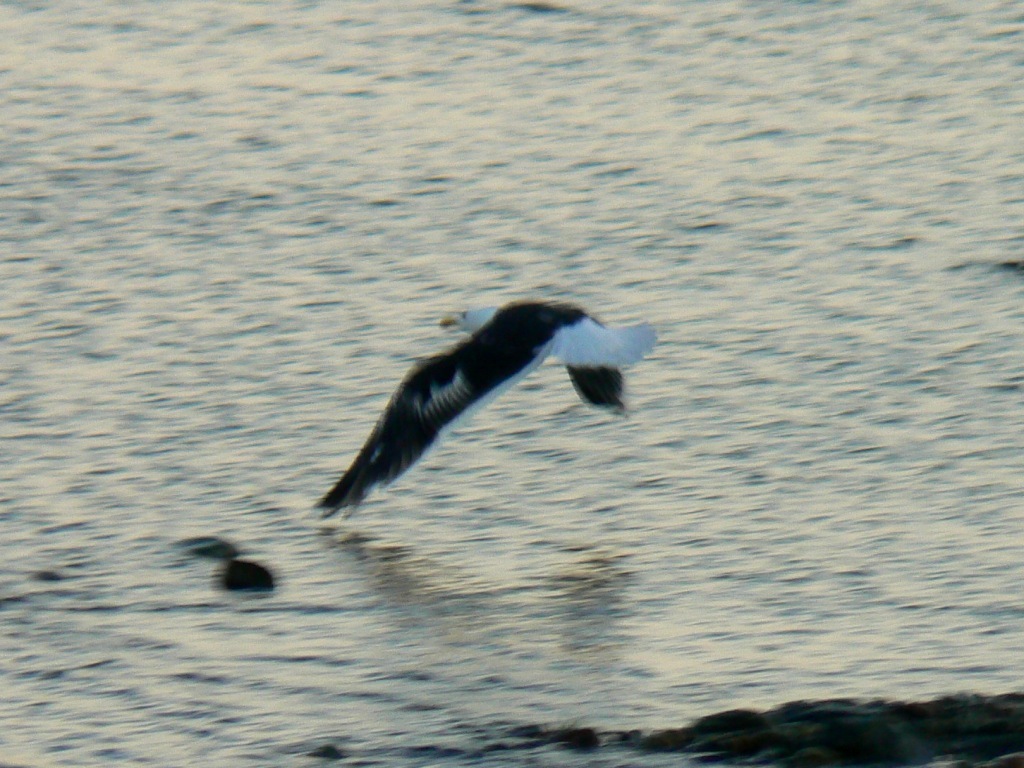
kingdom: Animalia
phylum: Chordata
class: Aves
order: Charadriiformes
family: Laridae
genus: Larus
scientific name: Larus marinus
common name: Great black-backed gull
